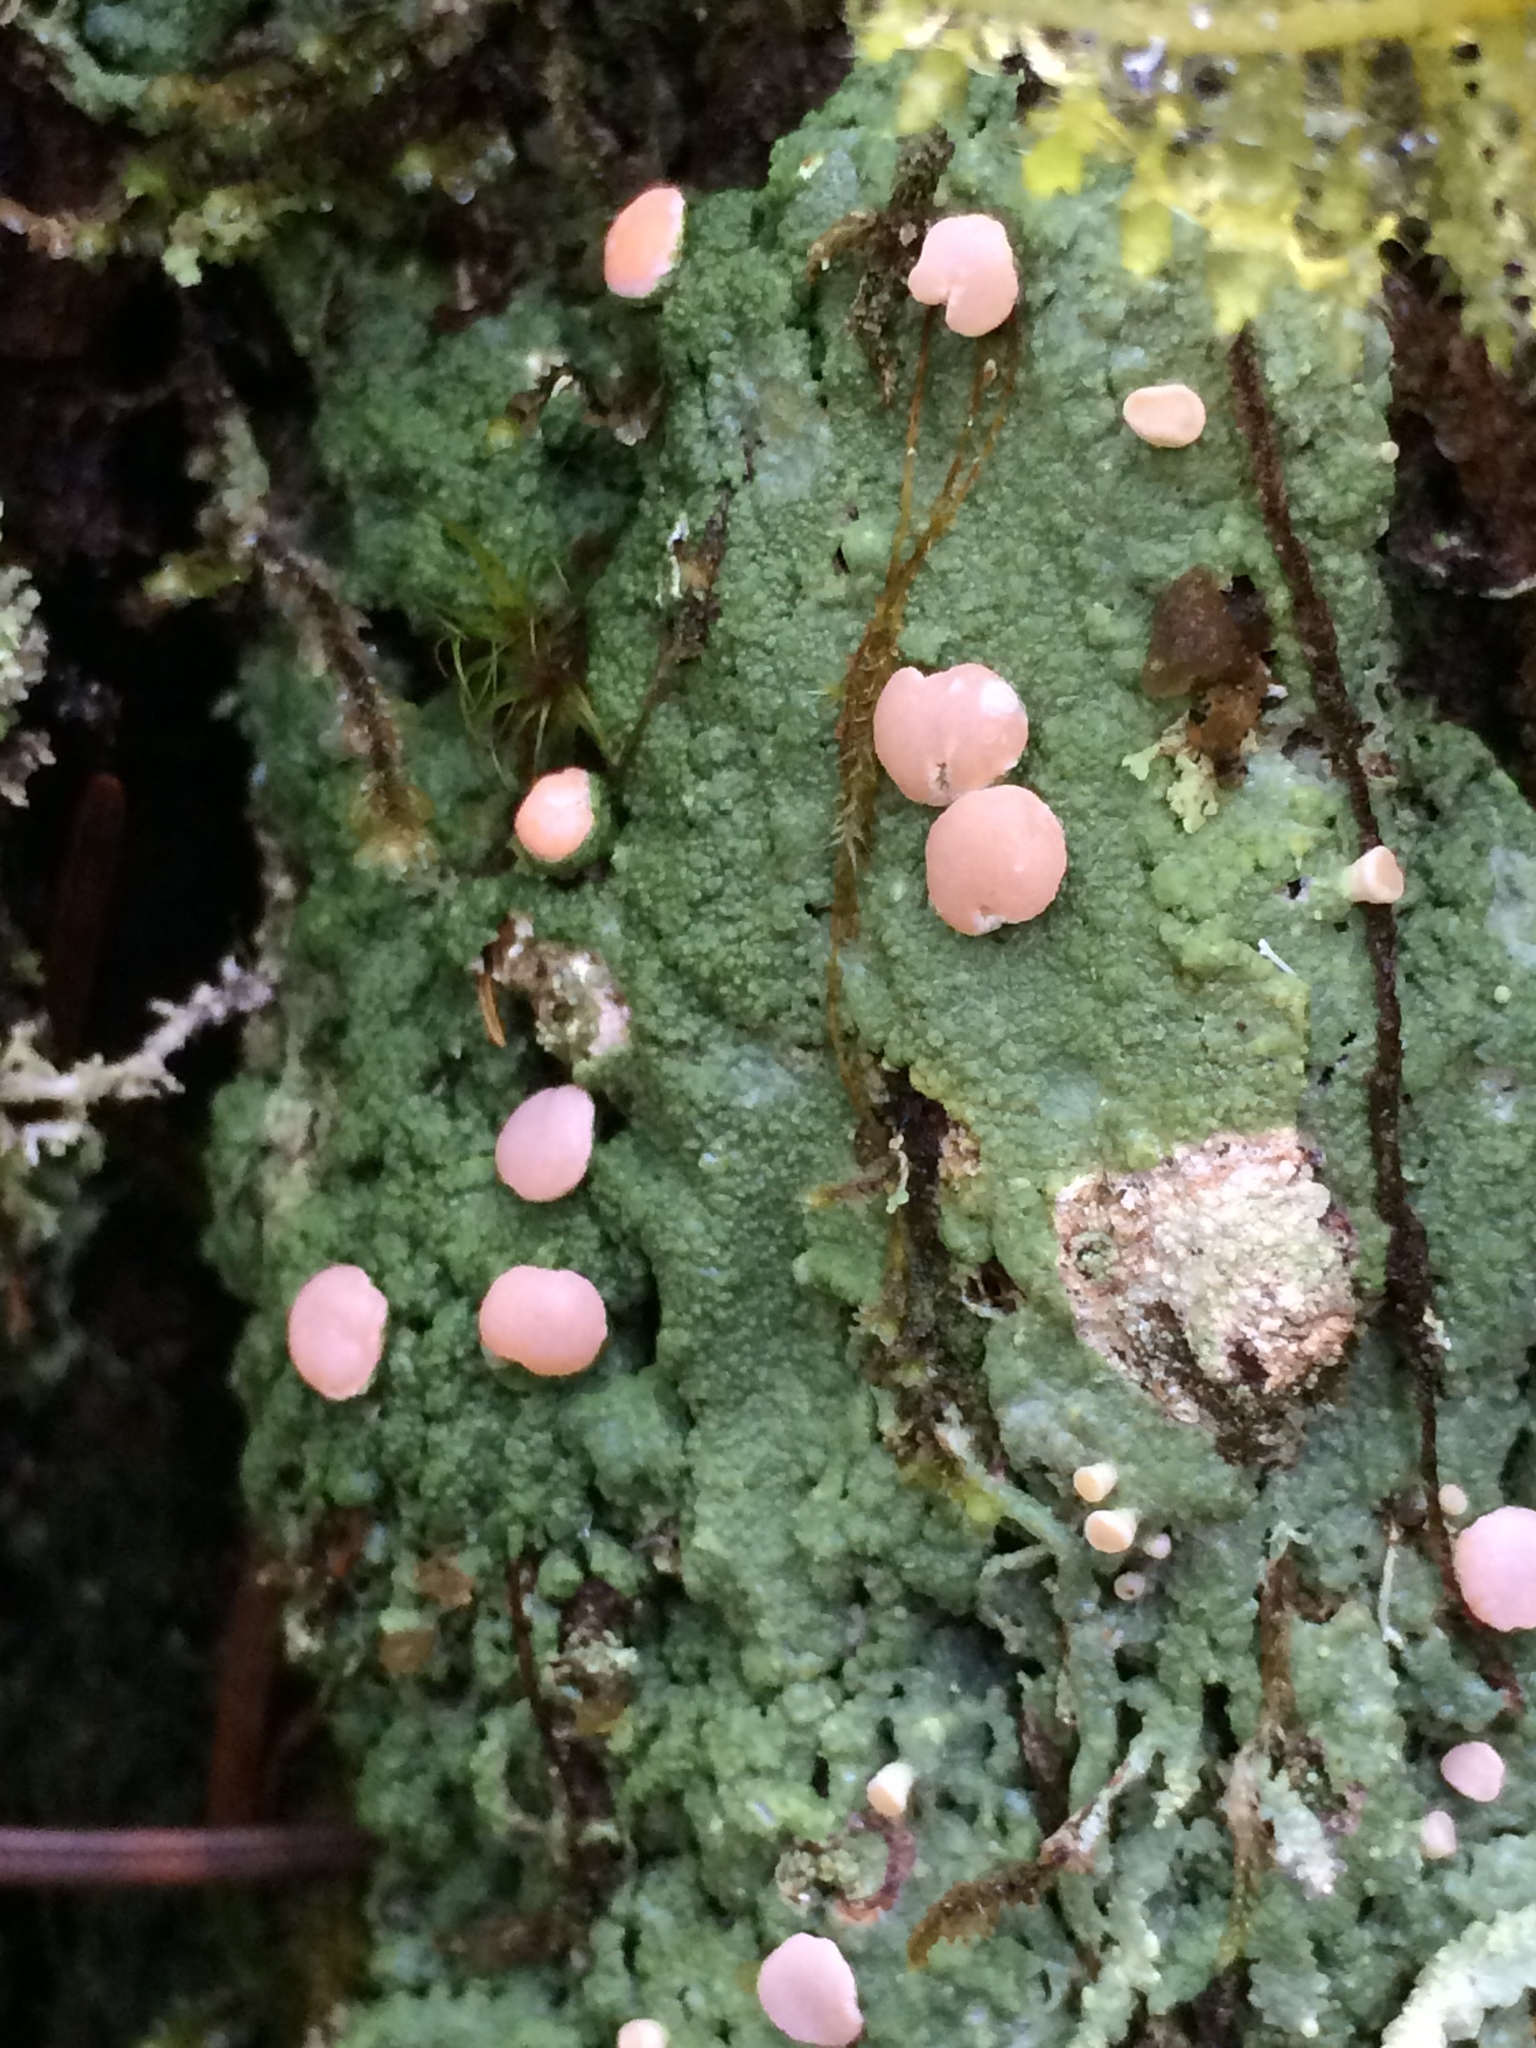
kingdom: Fungi
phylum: Ascomycota
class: Lecanoromycetes
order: Pertusariales
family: Icmadophilaceae
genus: Icmadophila
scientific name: Icmadophila ericetorum
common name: Candy lichen
